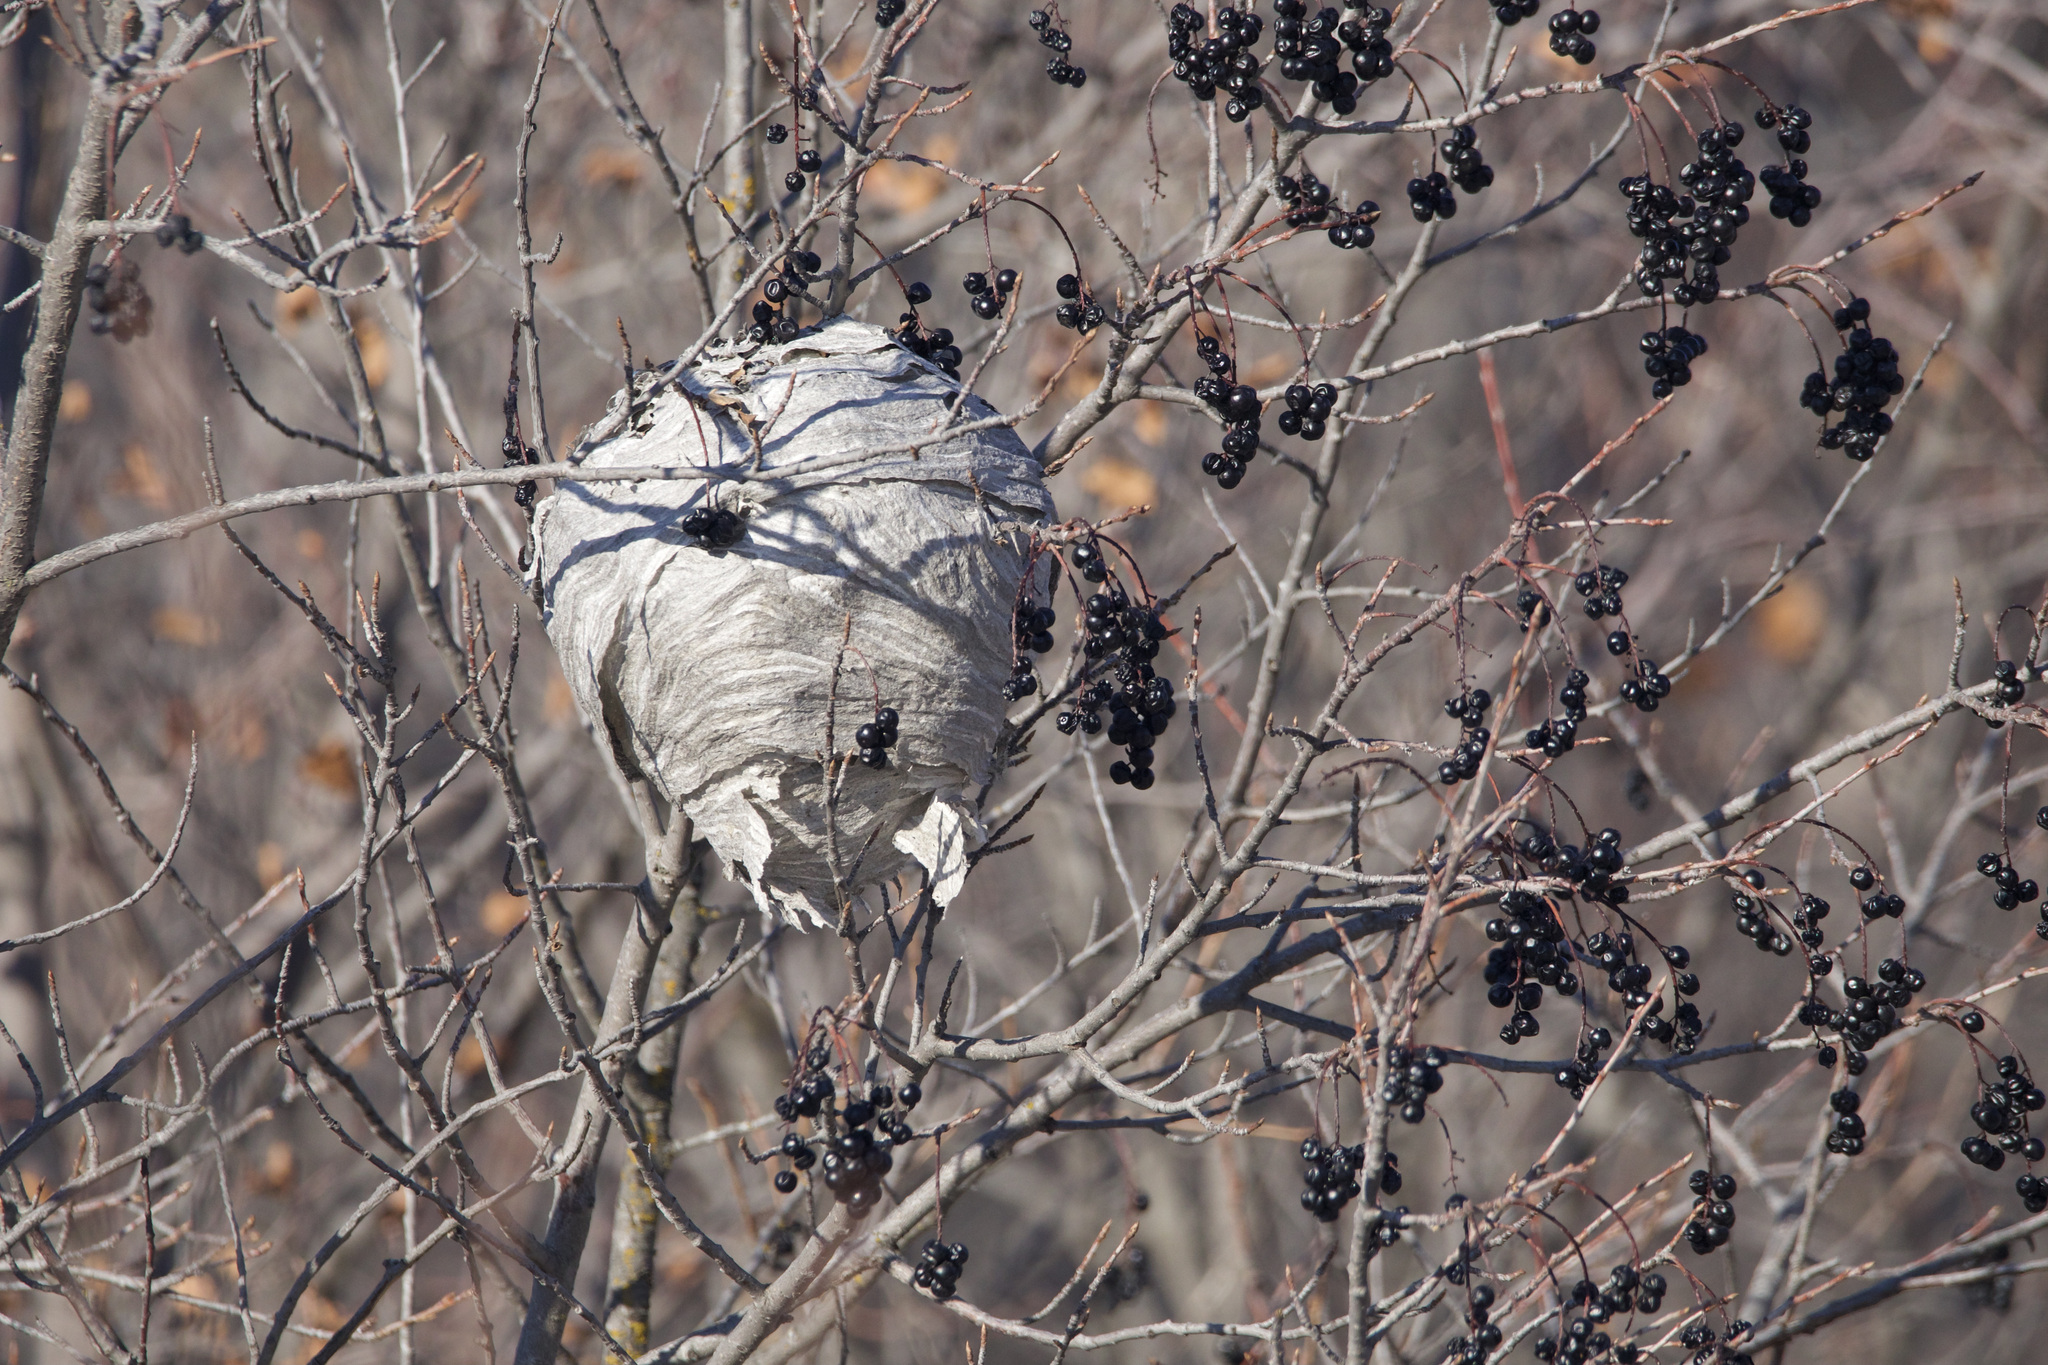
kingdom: Plantae
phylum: Tracheophyta
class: Magnoliopsida
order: Rosales
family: Rosaceae
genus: Prunus
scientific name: Prunus virginiana
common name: Chokecherry
